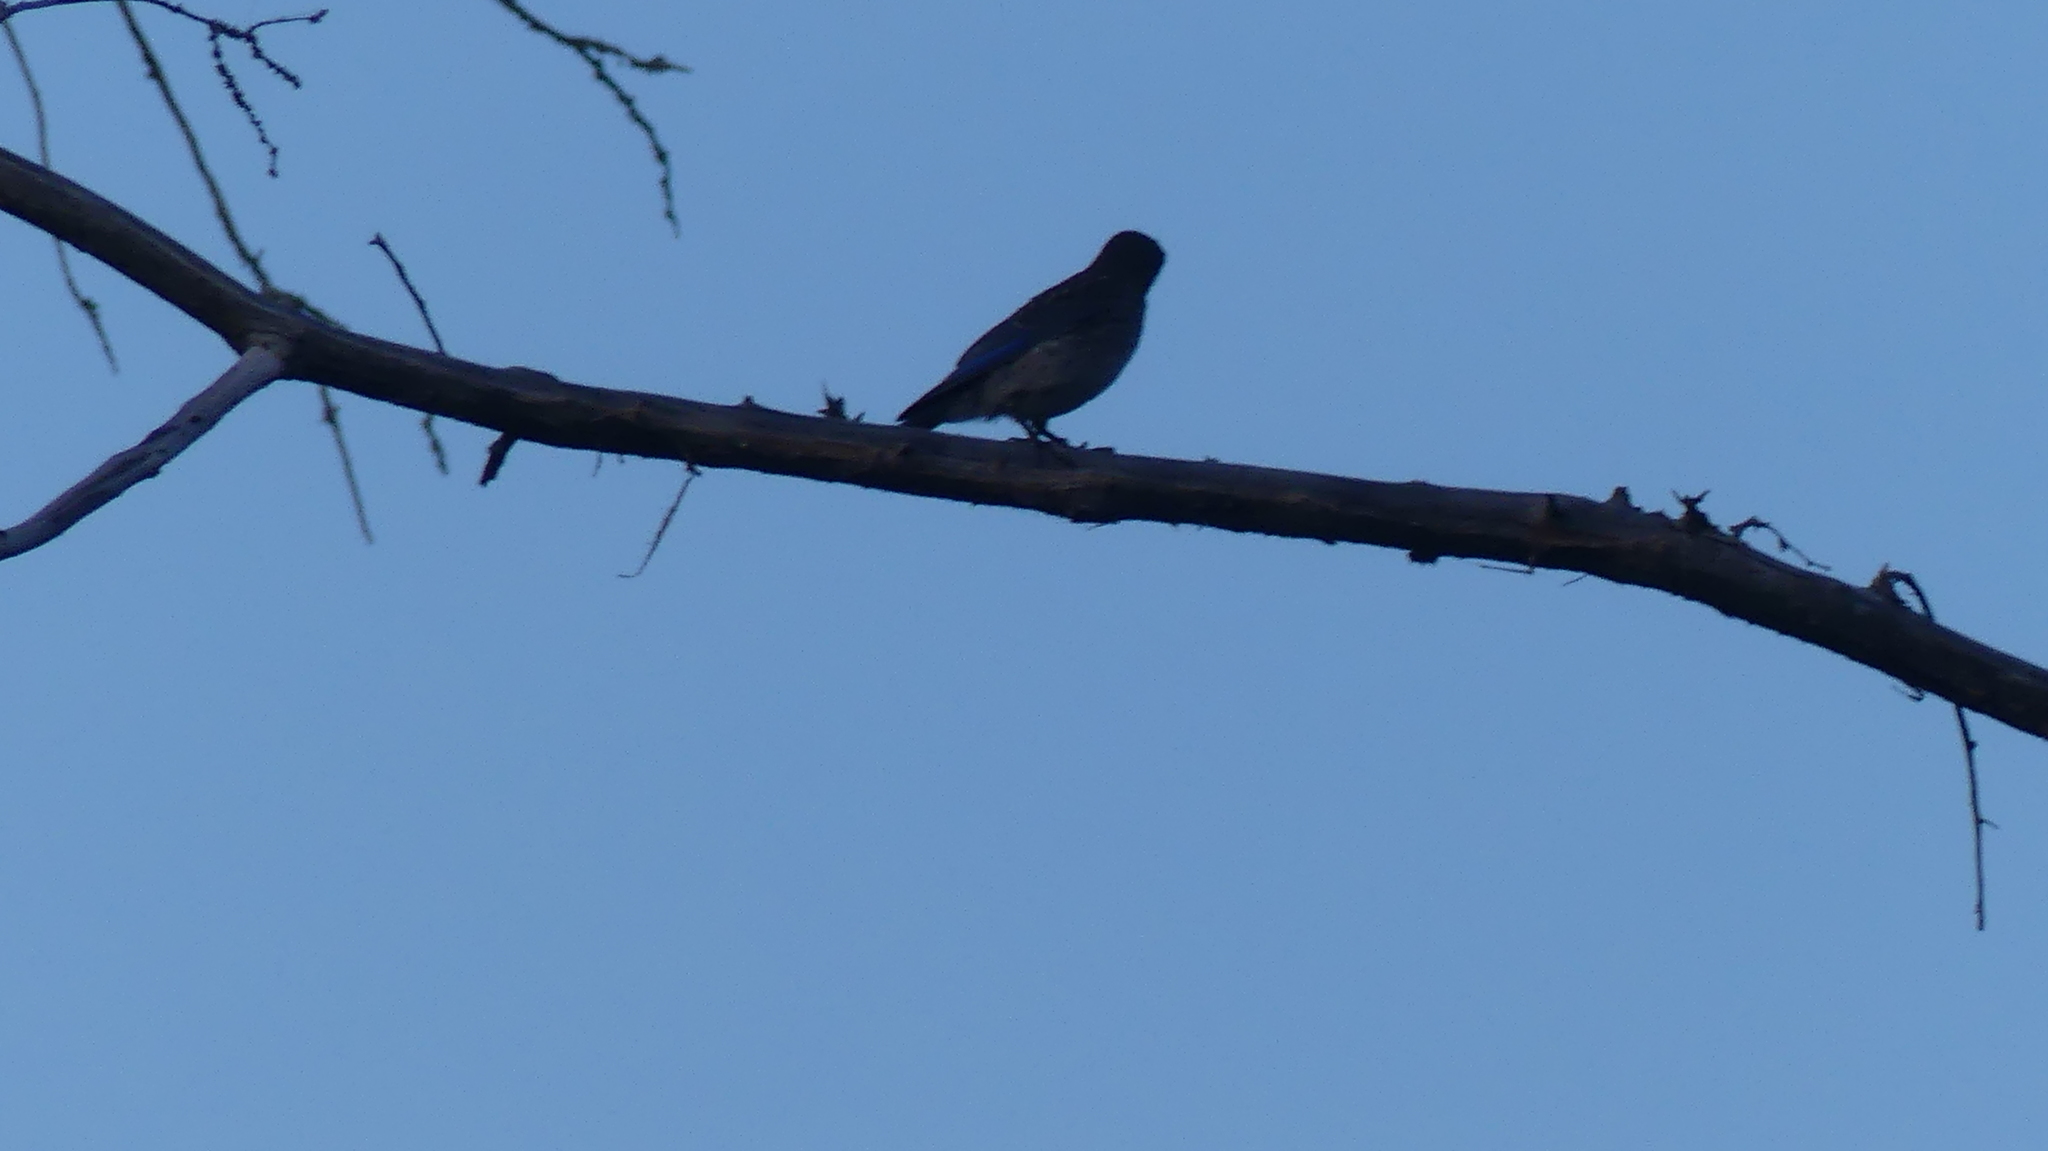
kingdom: Animalia
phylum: Chordata
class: Aves
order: Passeriformes
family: Turdidae
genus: Sialia
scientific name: Sialia sialis
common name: Eastern bluebird
